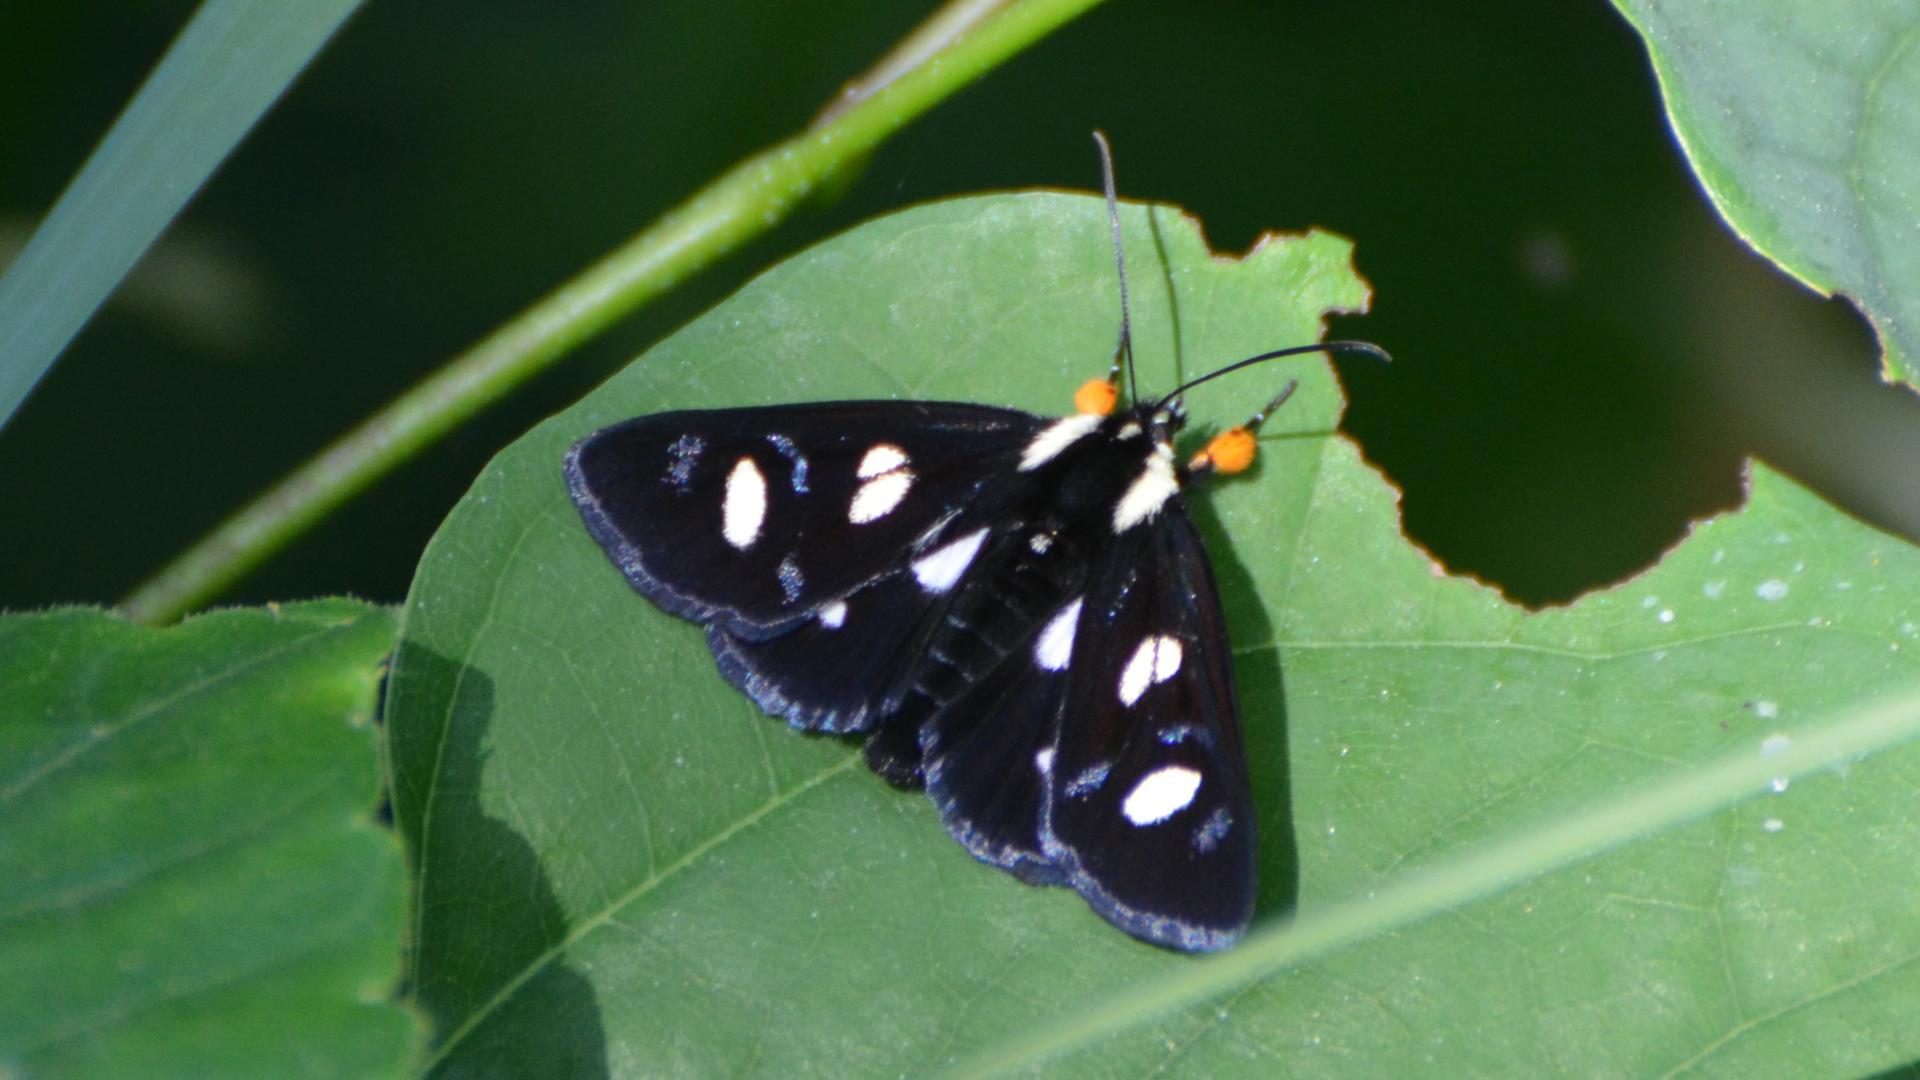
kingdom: Animalia
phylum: Arthropoda
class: Insecta
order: Lepidoptera
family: Noctuidae
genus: Alypia
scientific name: Alypia octomaculata
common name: Eight-spotted forester
